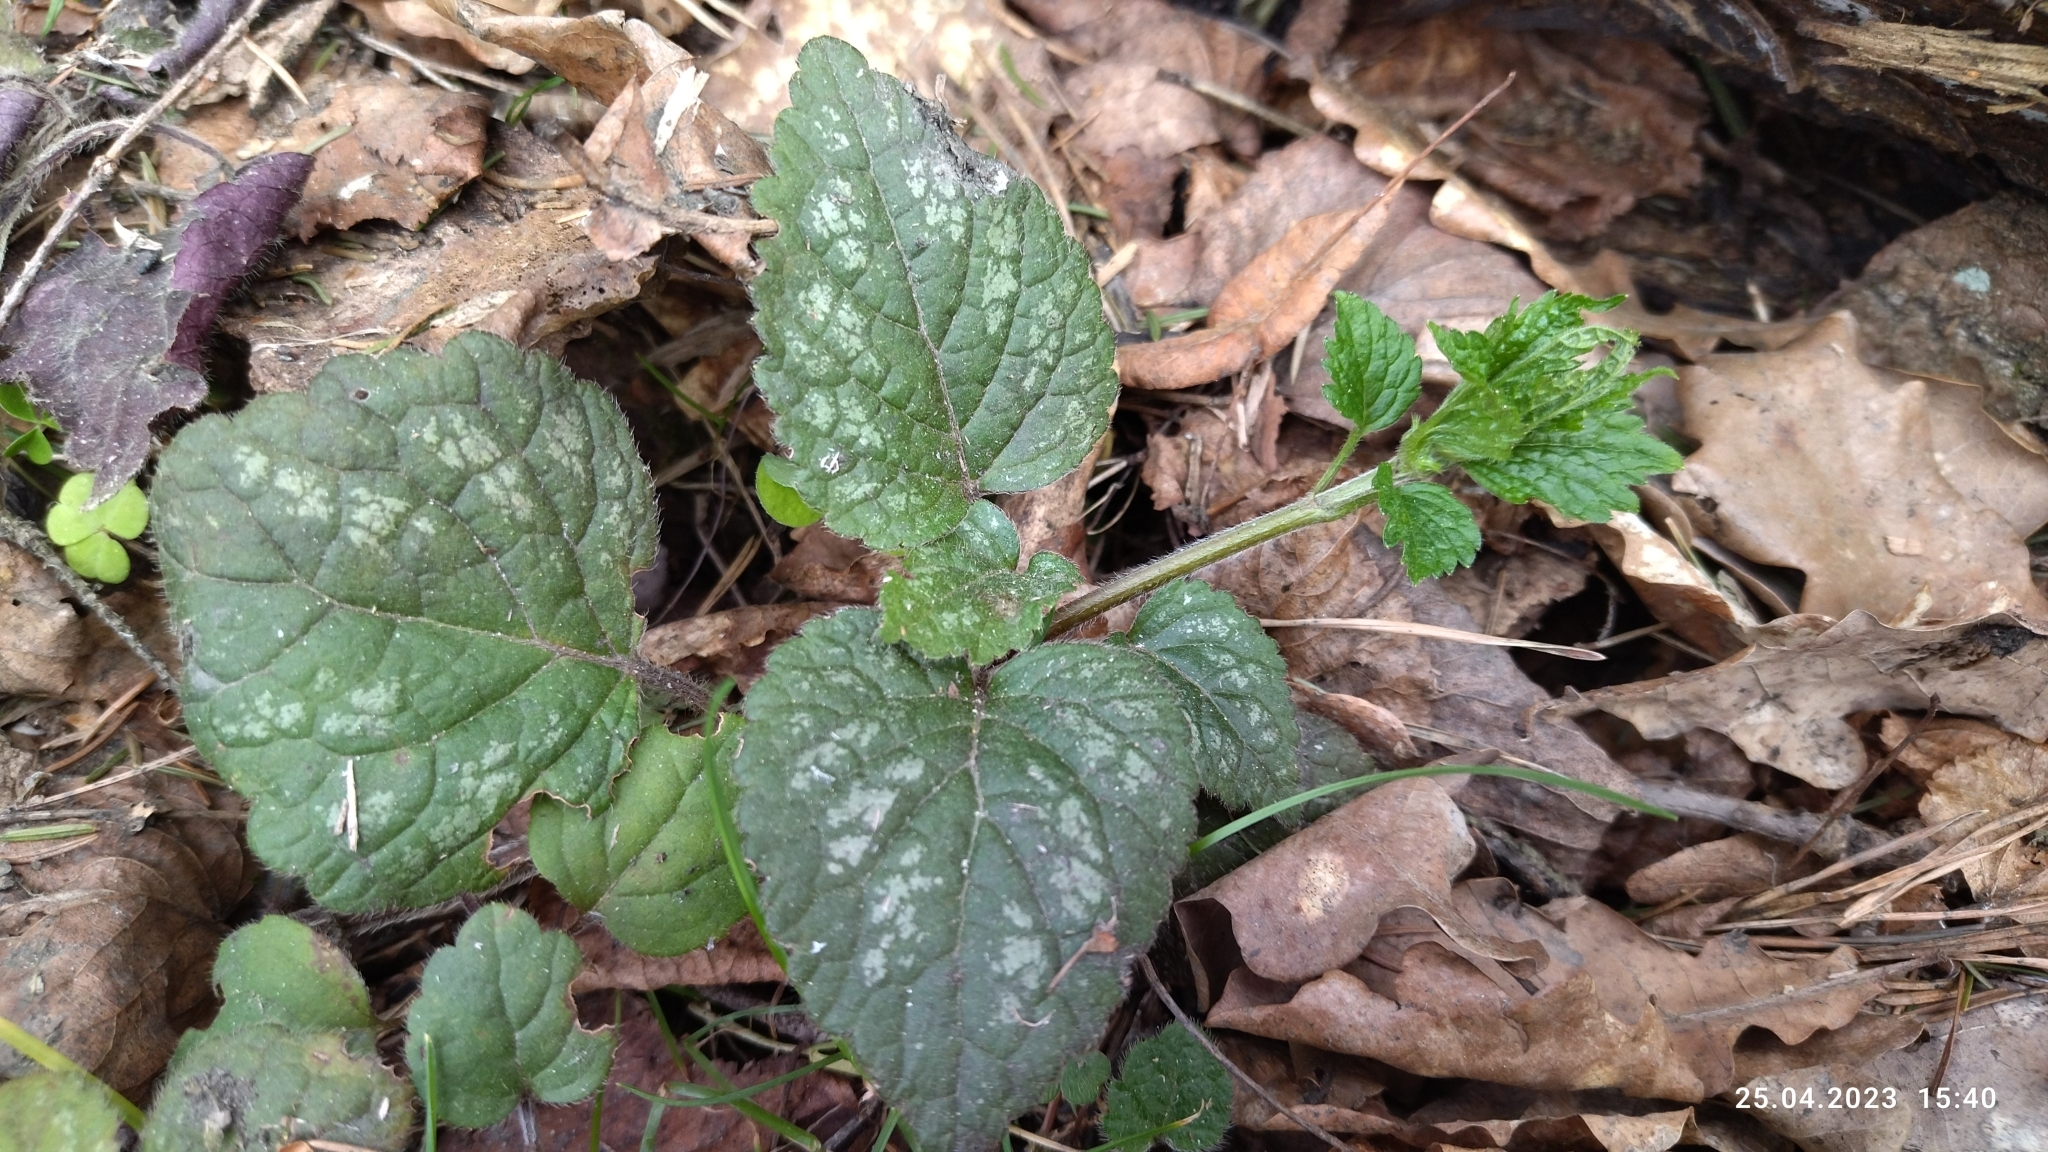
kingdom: Plantae
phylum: Tracheophyta
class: Magnoliopsida
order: Lamiales
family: Lamiaceae
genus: Lamium
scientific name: Lamium galeobdolon
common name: Yellow archangel
